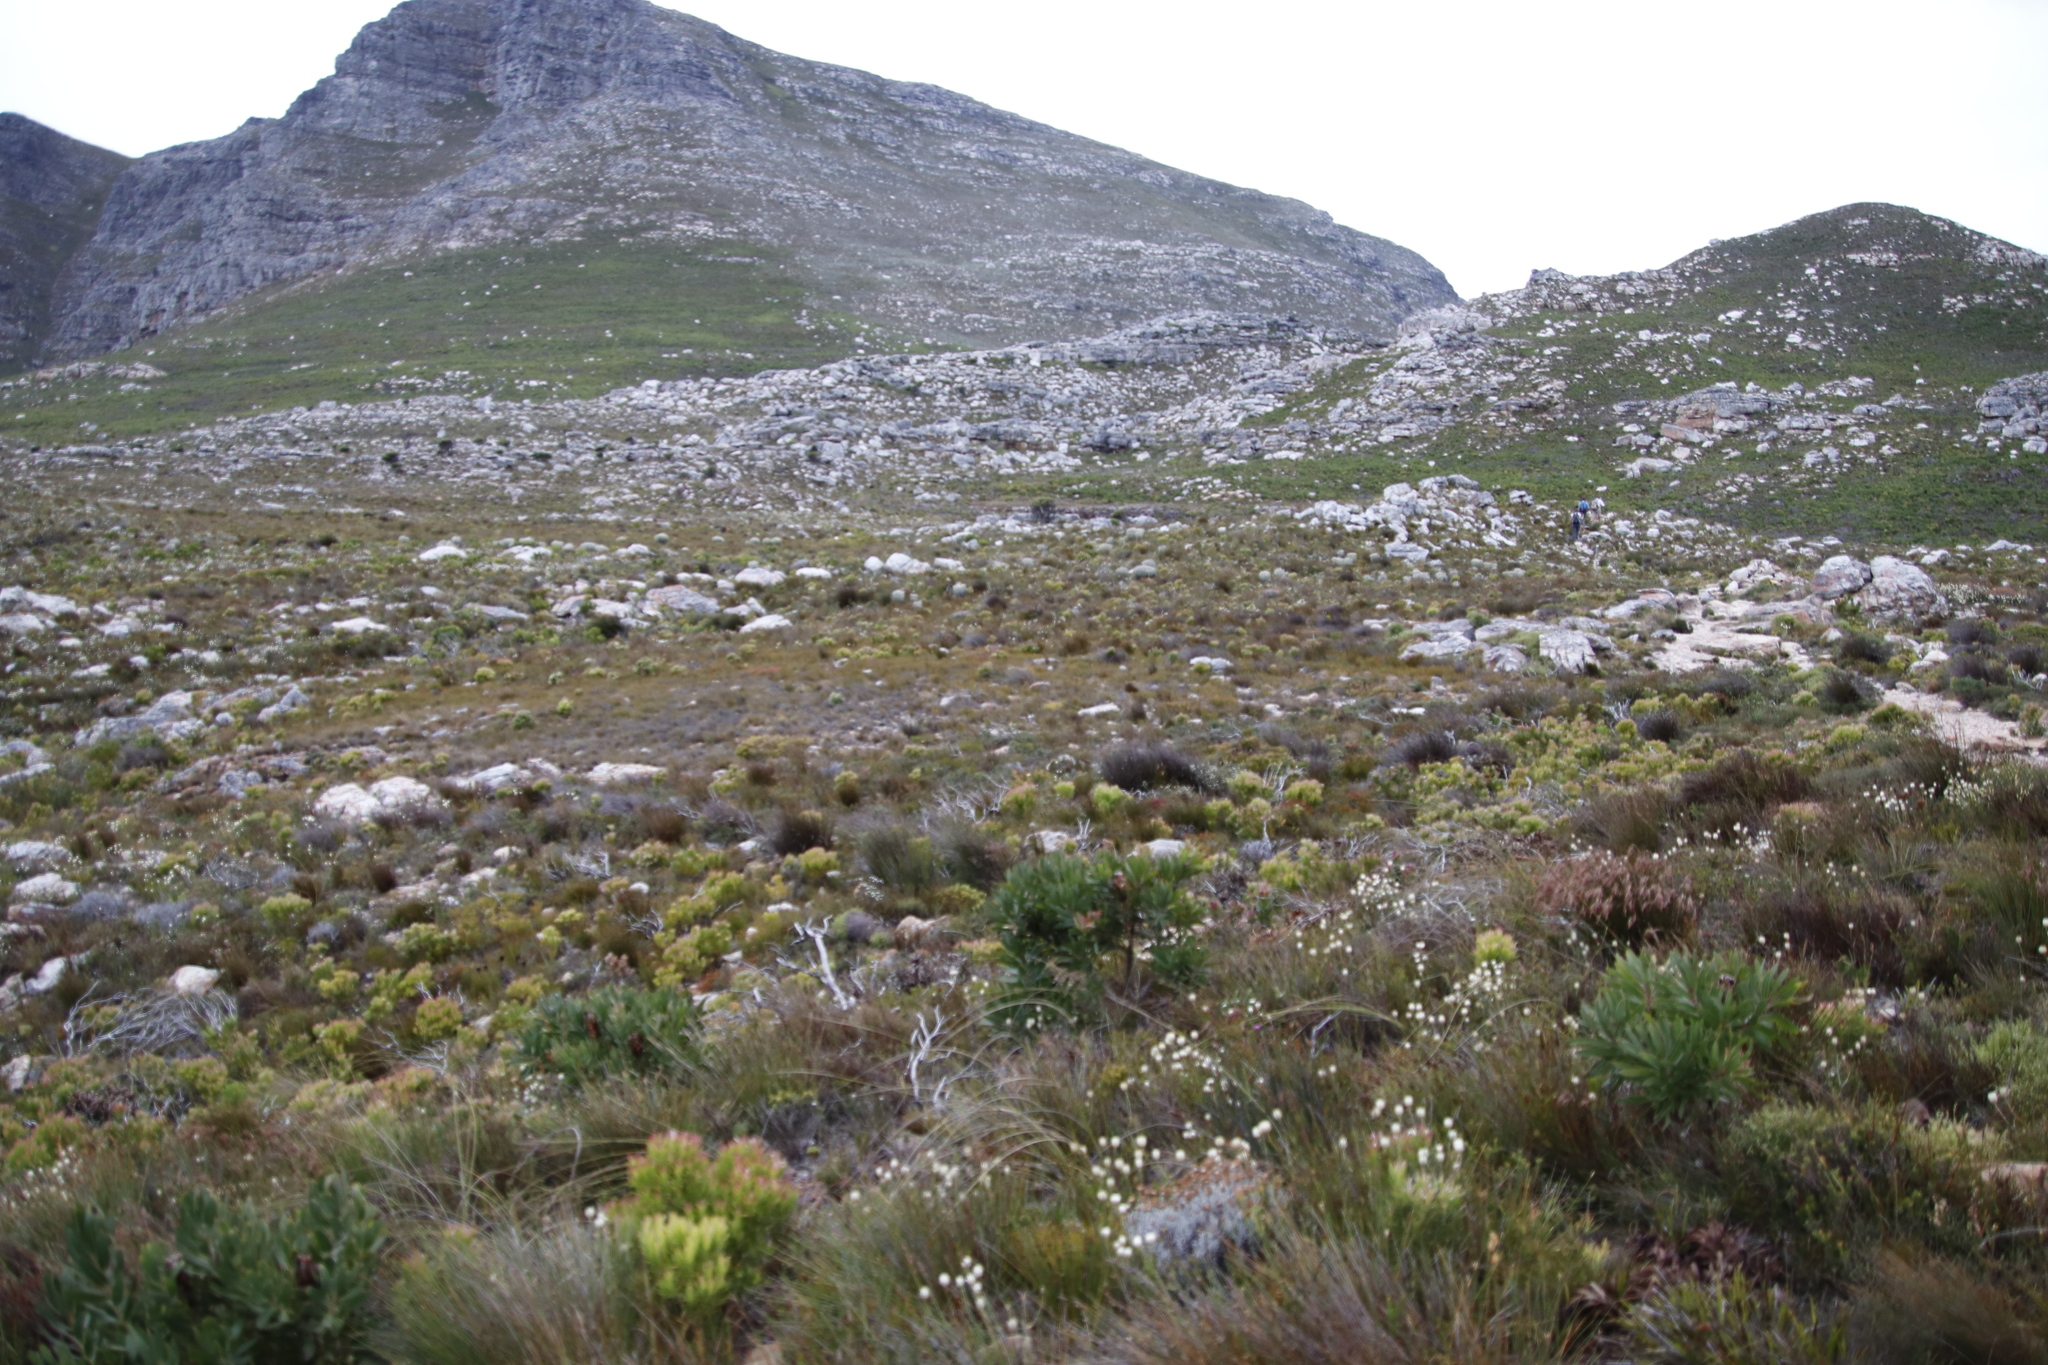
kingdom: Plantae
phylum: Tracheophyta
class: Magnoliopsida
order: Proteales
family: Proteaceae
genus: Leucadendron
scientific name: Leucadendron salignum
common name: Common sunshine conebush
